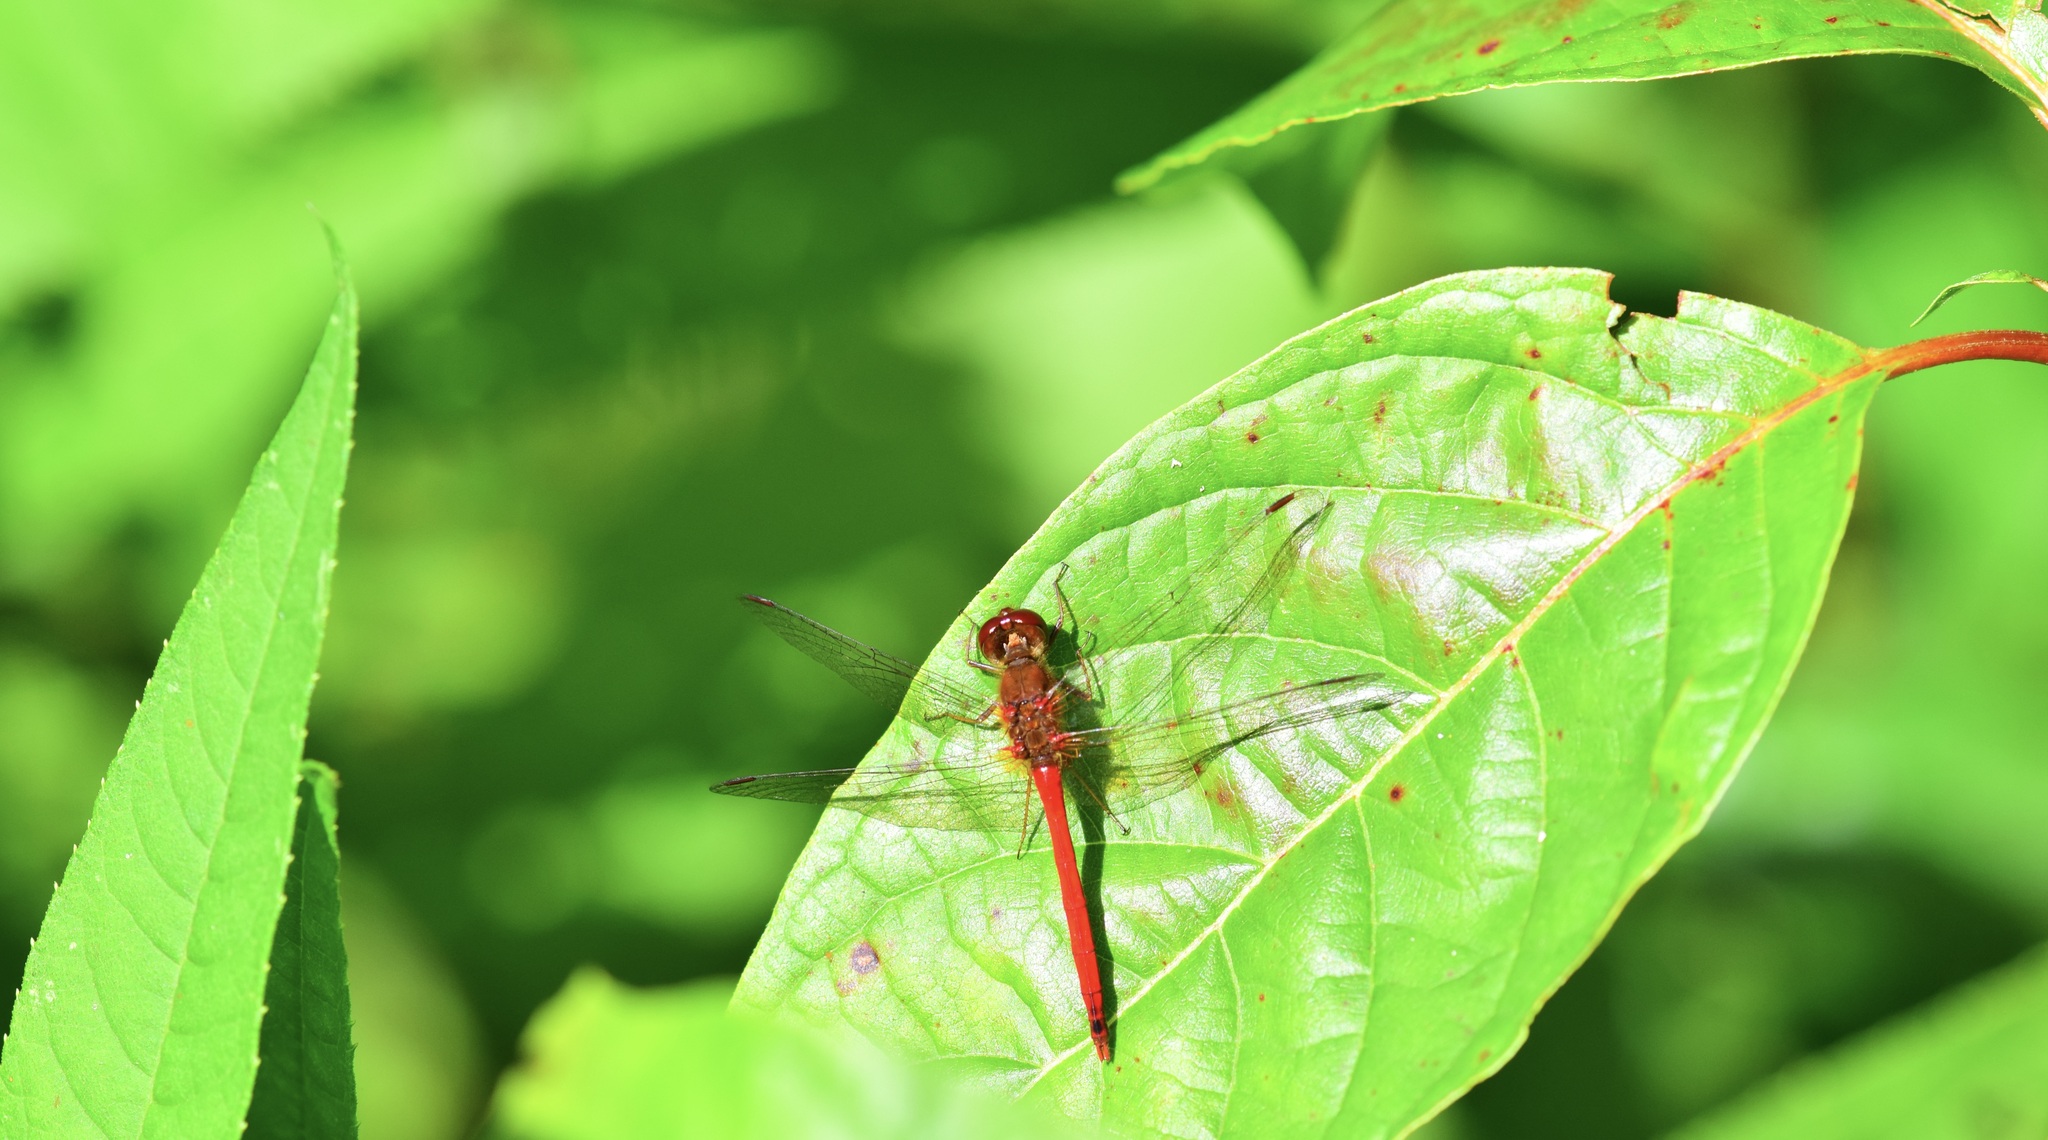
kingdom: Animalia
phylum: Arthropoda
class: Insecta
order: Odonata
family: Libellulidae
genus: Sympetrum
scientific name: Sympetrum vicinum
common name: Autumn meadowhawk
